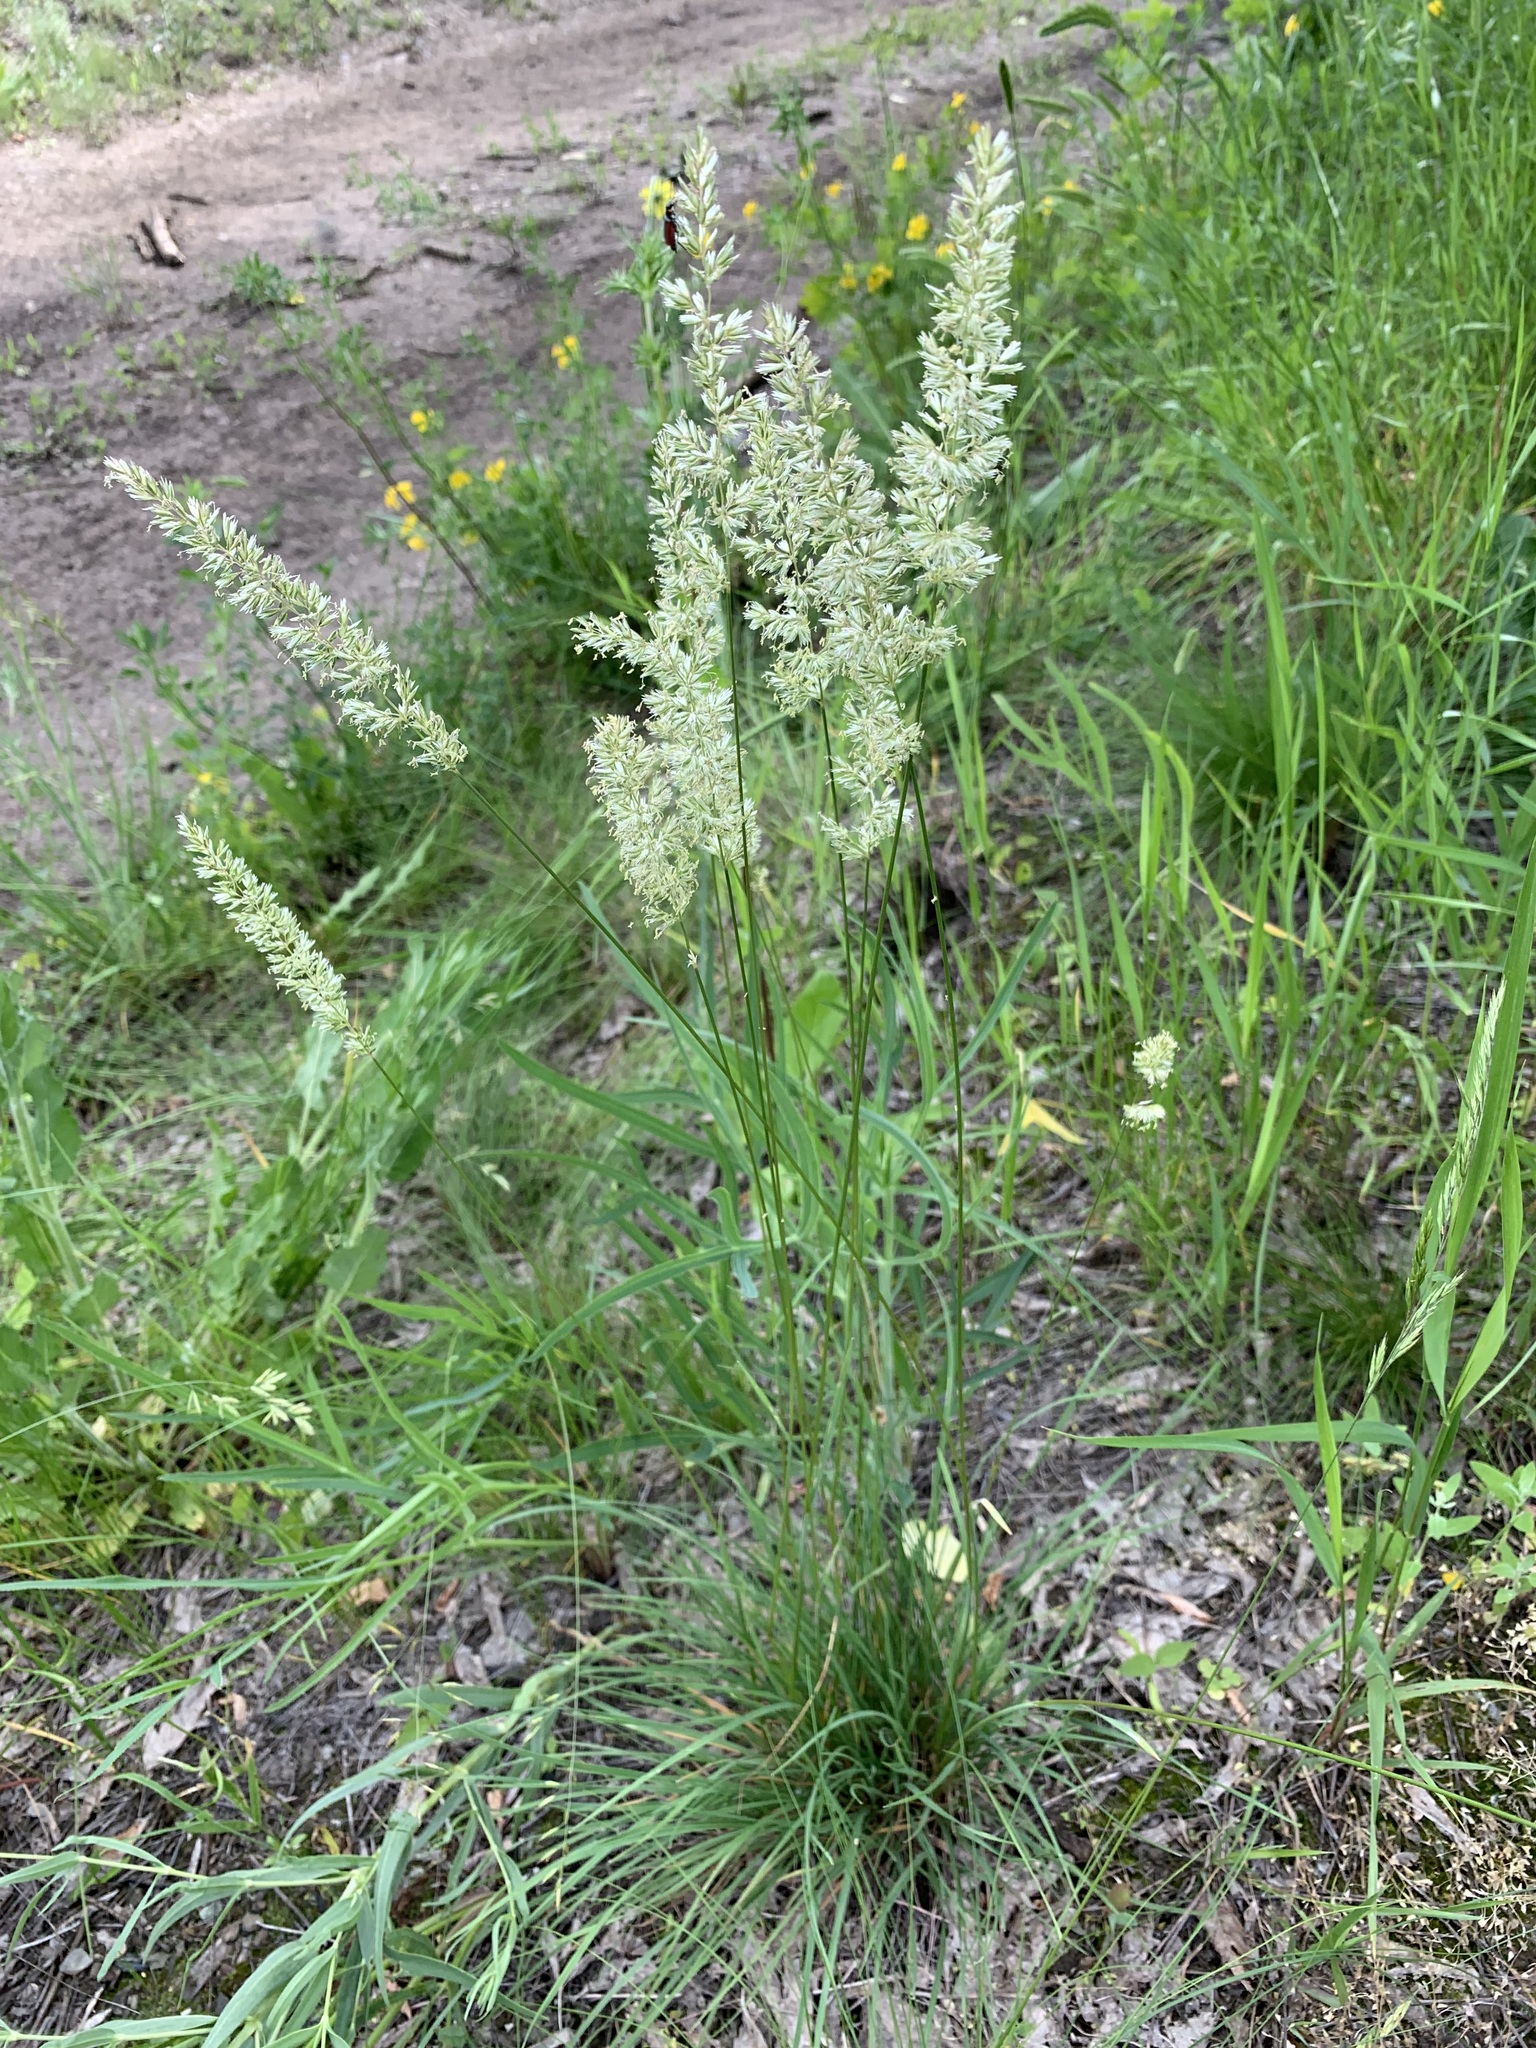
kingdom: Plantae
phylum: Tracheophyta
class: Liliopsida
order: Poales
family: Poaceae
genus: Koeleria
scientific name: Koeleria macrantha
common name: Crested hair-grass
